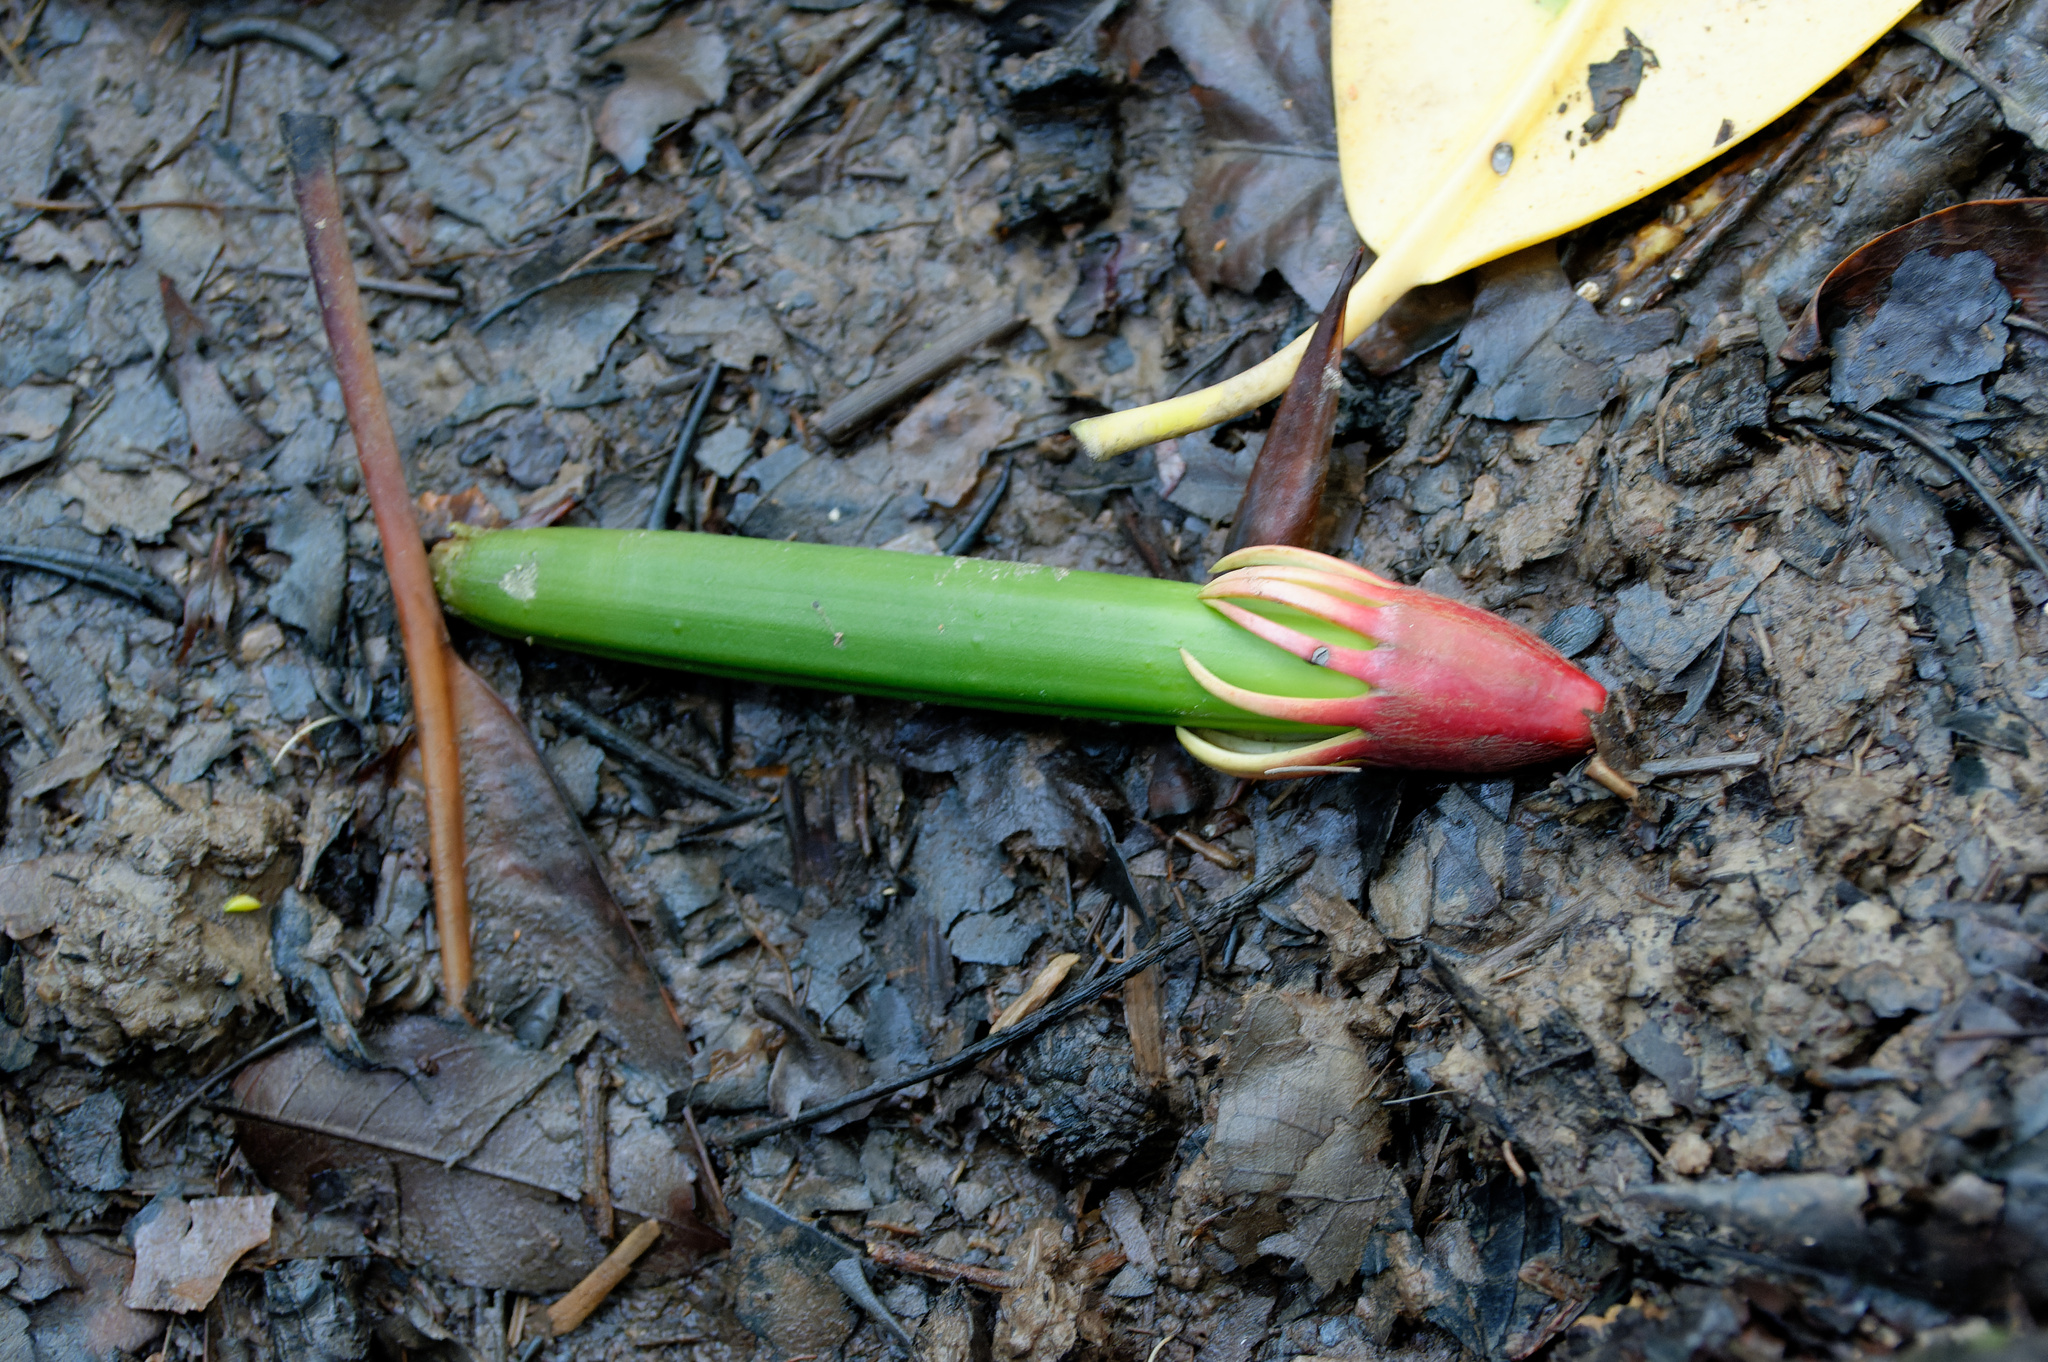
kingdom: Plantae
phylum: Tracheophyta
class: Magnoliopsida
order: Malpighiales
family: Rhizophoraceae
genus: Bruguiera
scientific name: Bruguiera gymnorhiza
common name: Oriental mangrove
